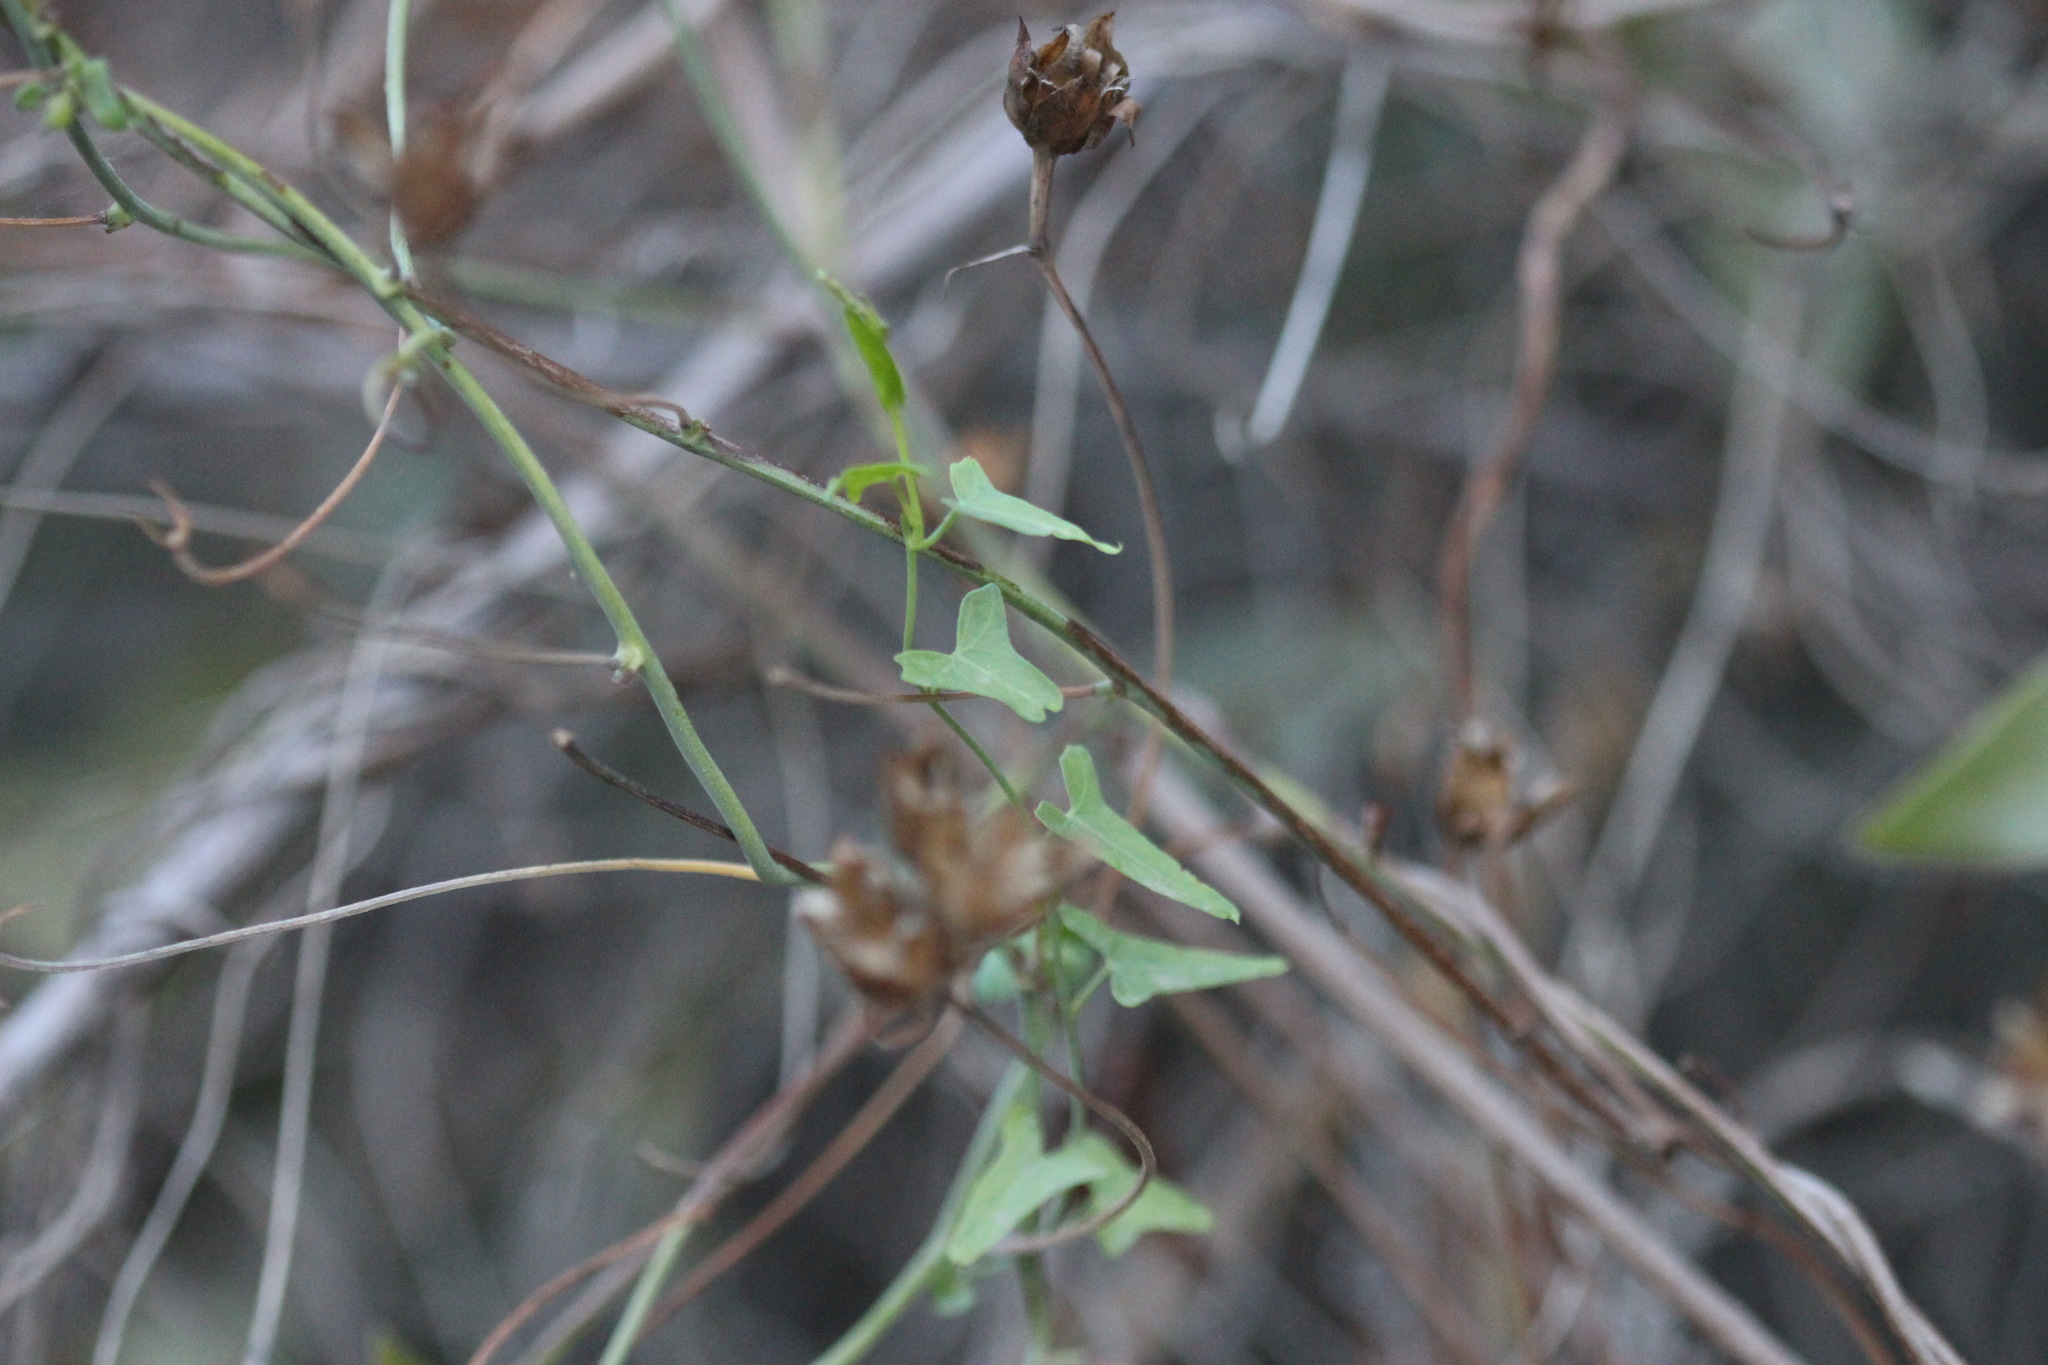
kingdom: Plantae
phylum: Tracheophyta
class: Magnoliopsida
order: Solanales
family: Convolvulaceae
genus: Calystegia
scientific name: Calystegia purpurata
